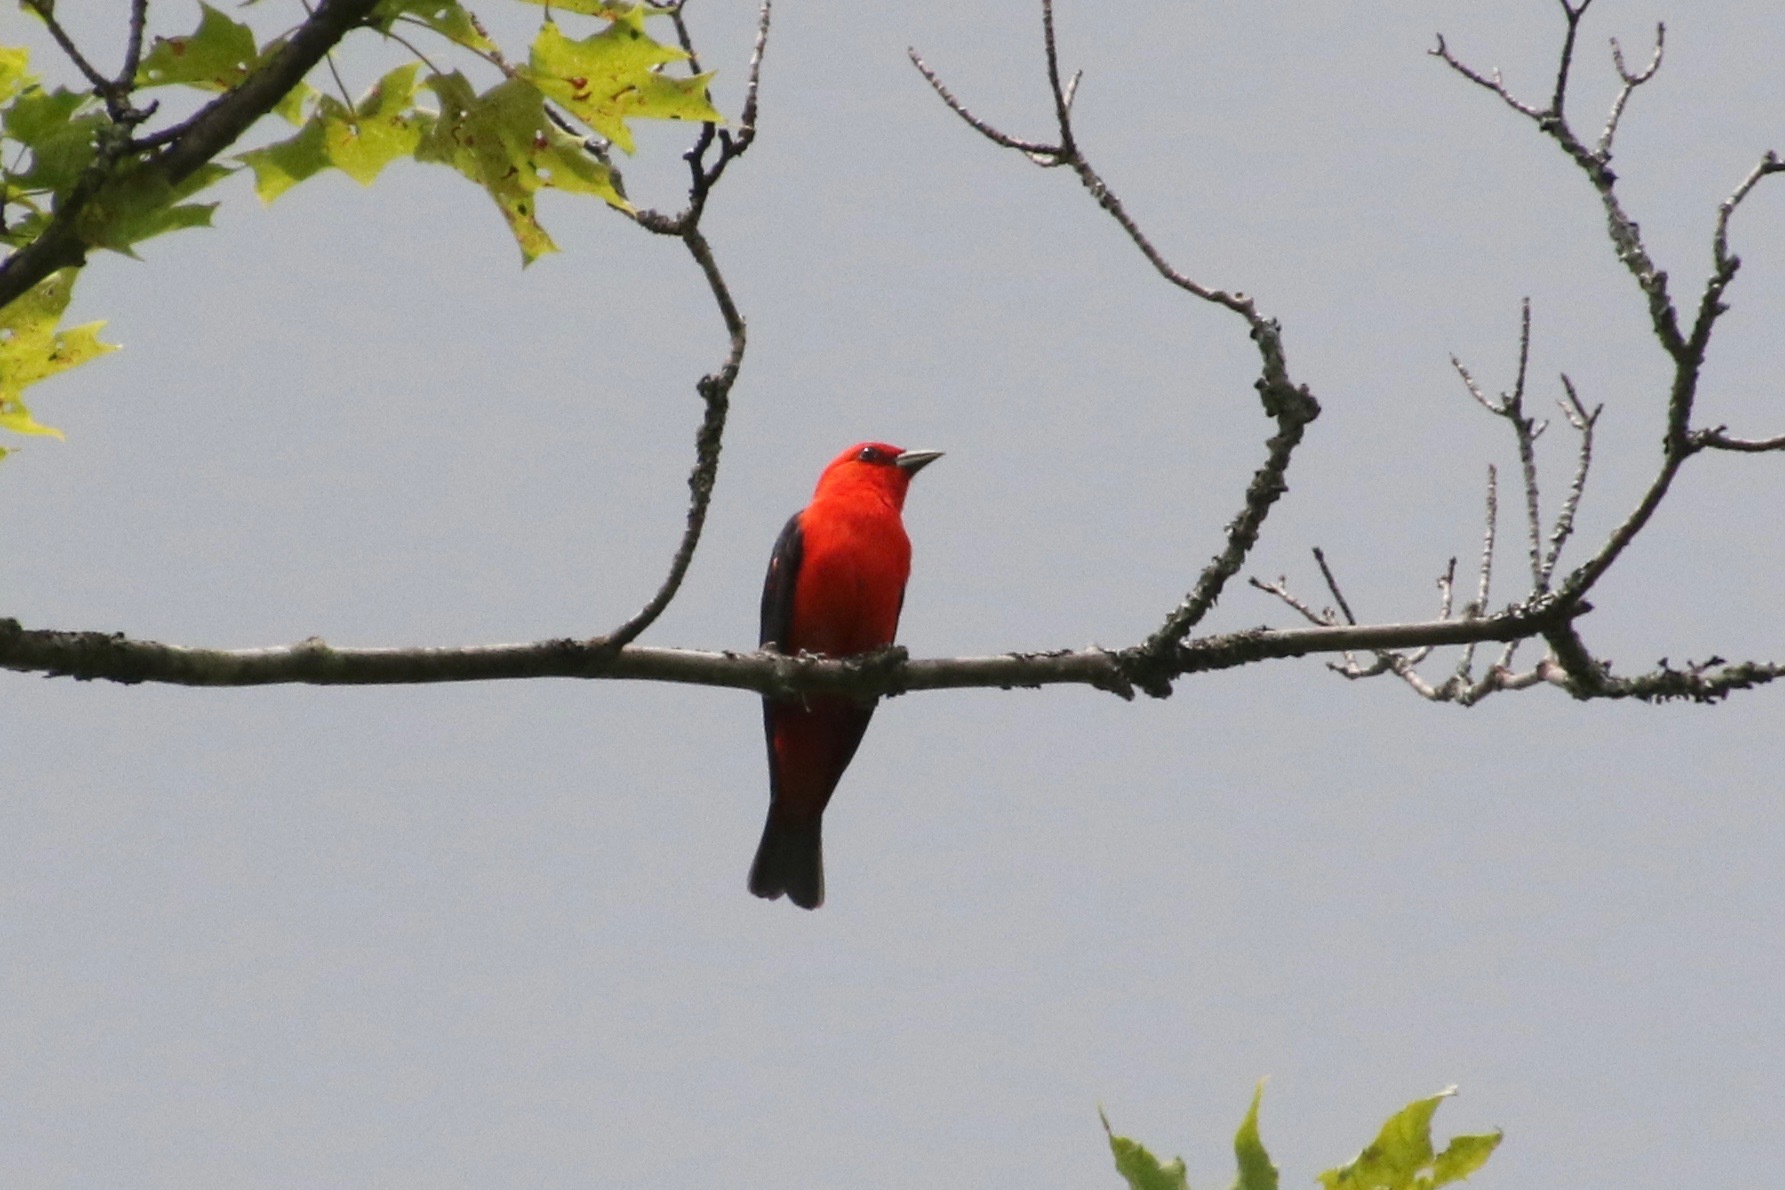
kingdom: Animalia
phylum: Chordata
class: Aves
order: Passeriformes
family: Cardinalidae
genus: Piranga
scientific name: Piranga olivacea
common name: Scarlet tanager
